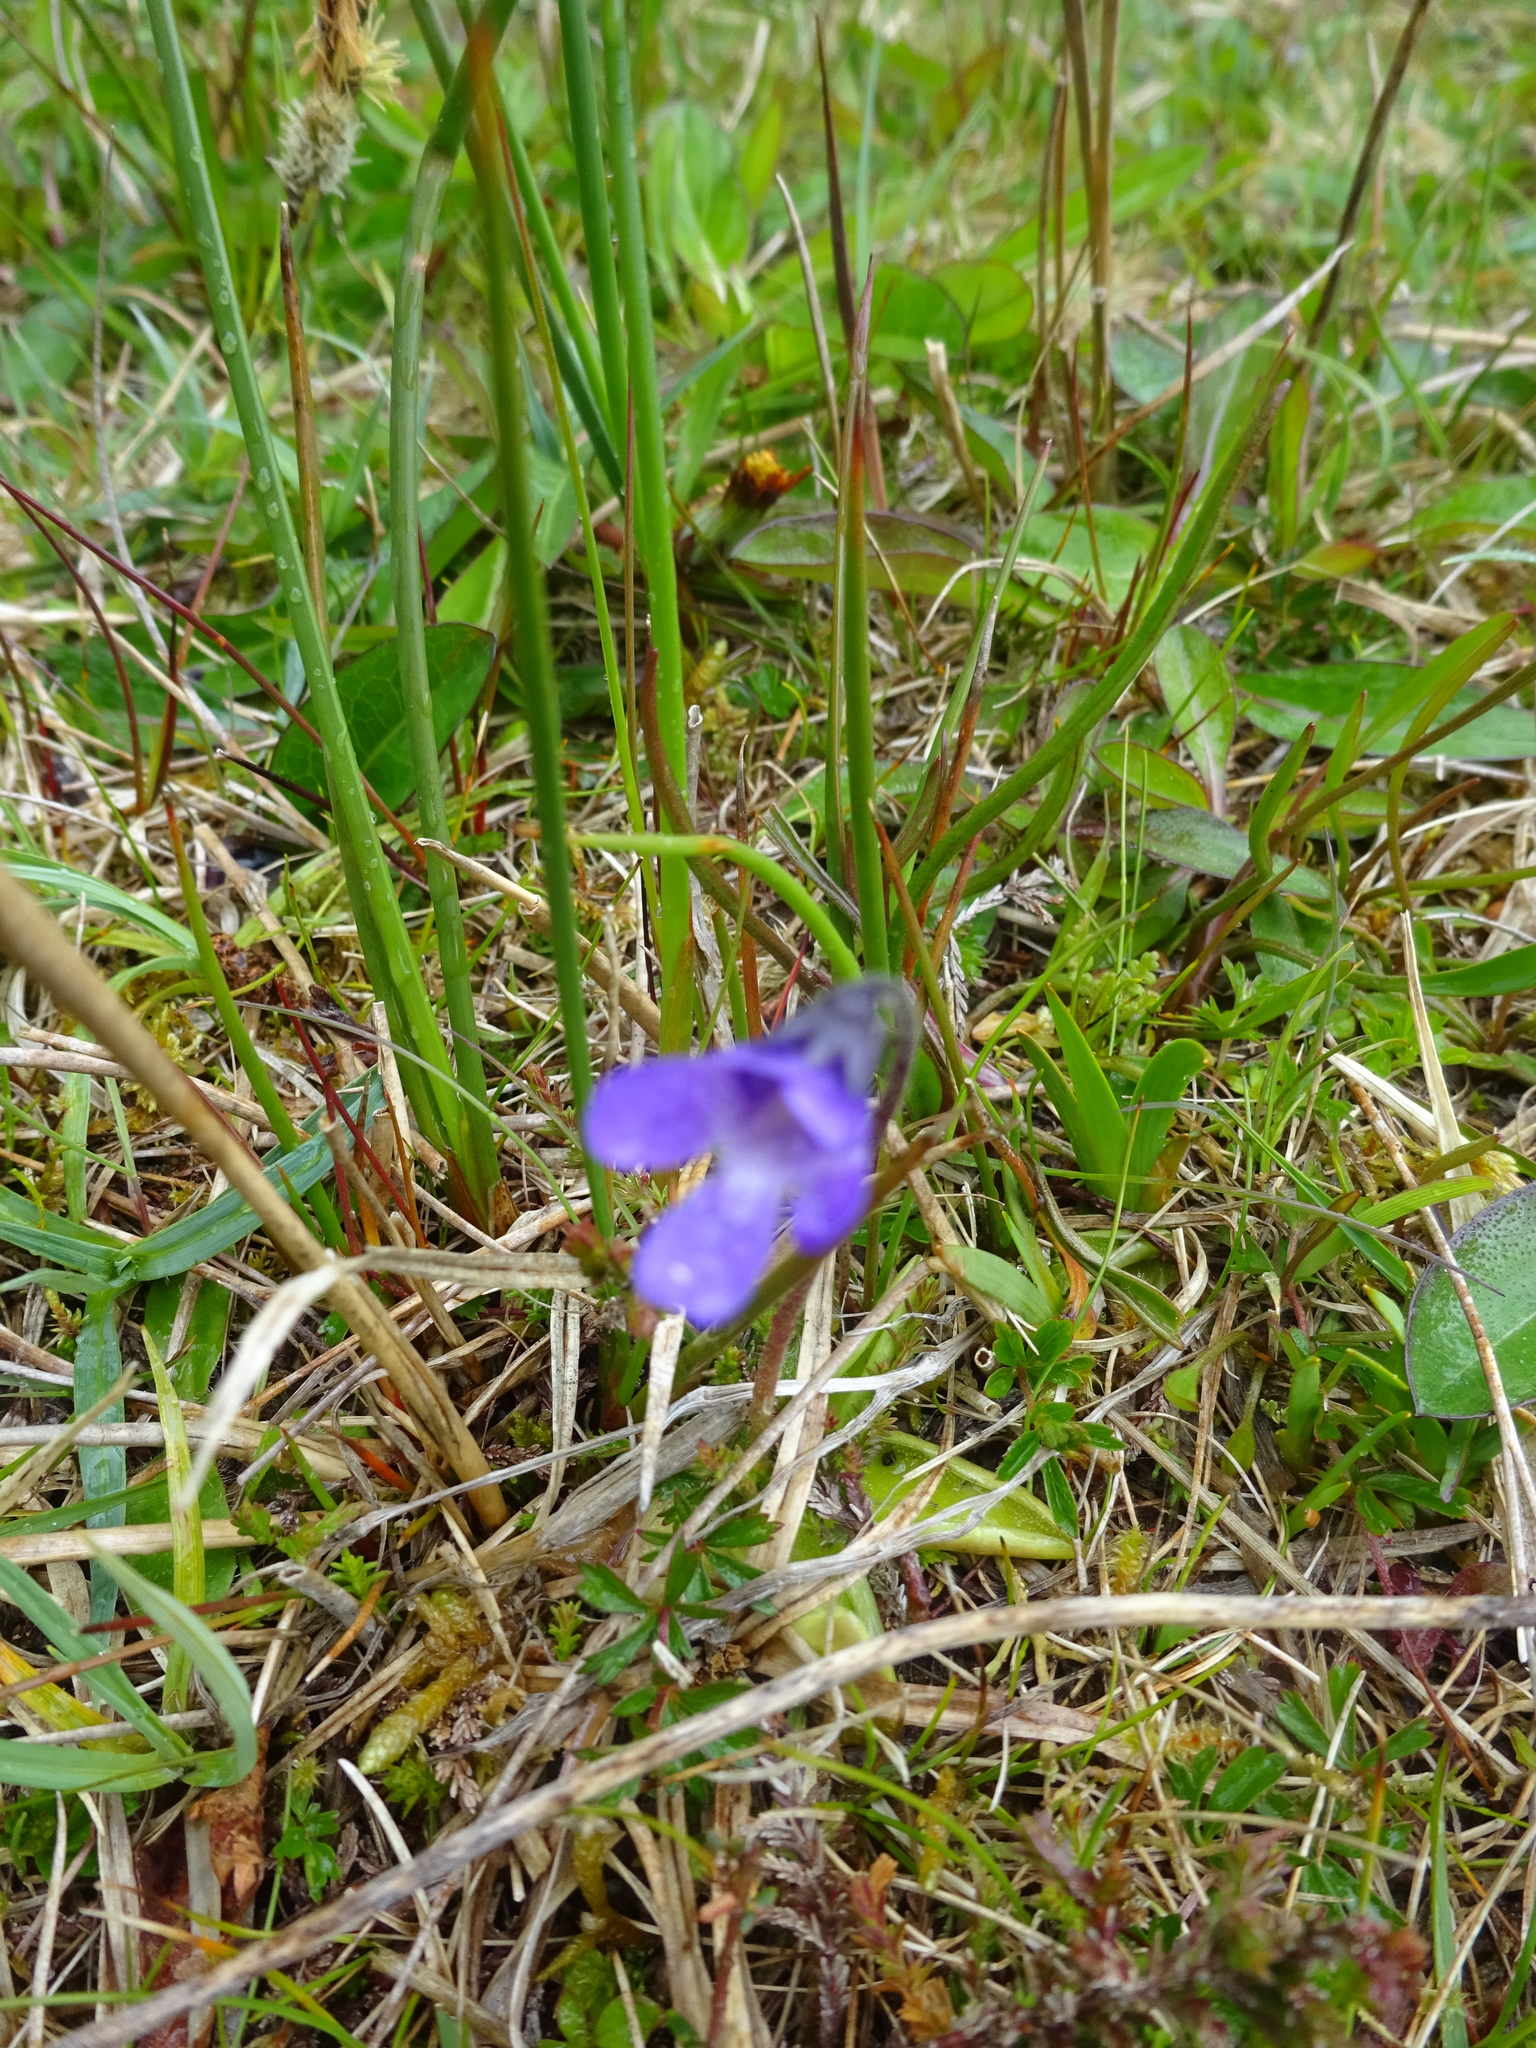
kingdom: Plantae
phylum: Tracheophyta
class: Magnoliopsida
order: Lamiales
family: Lentibulariaceae
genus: Pinguicula
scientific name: Pinguicula vulgaris
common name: Common butterwort
